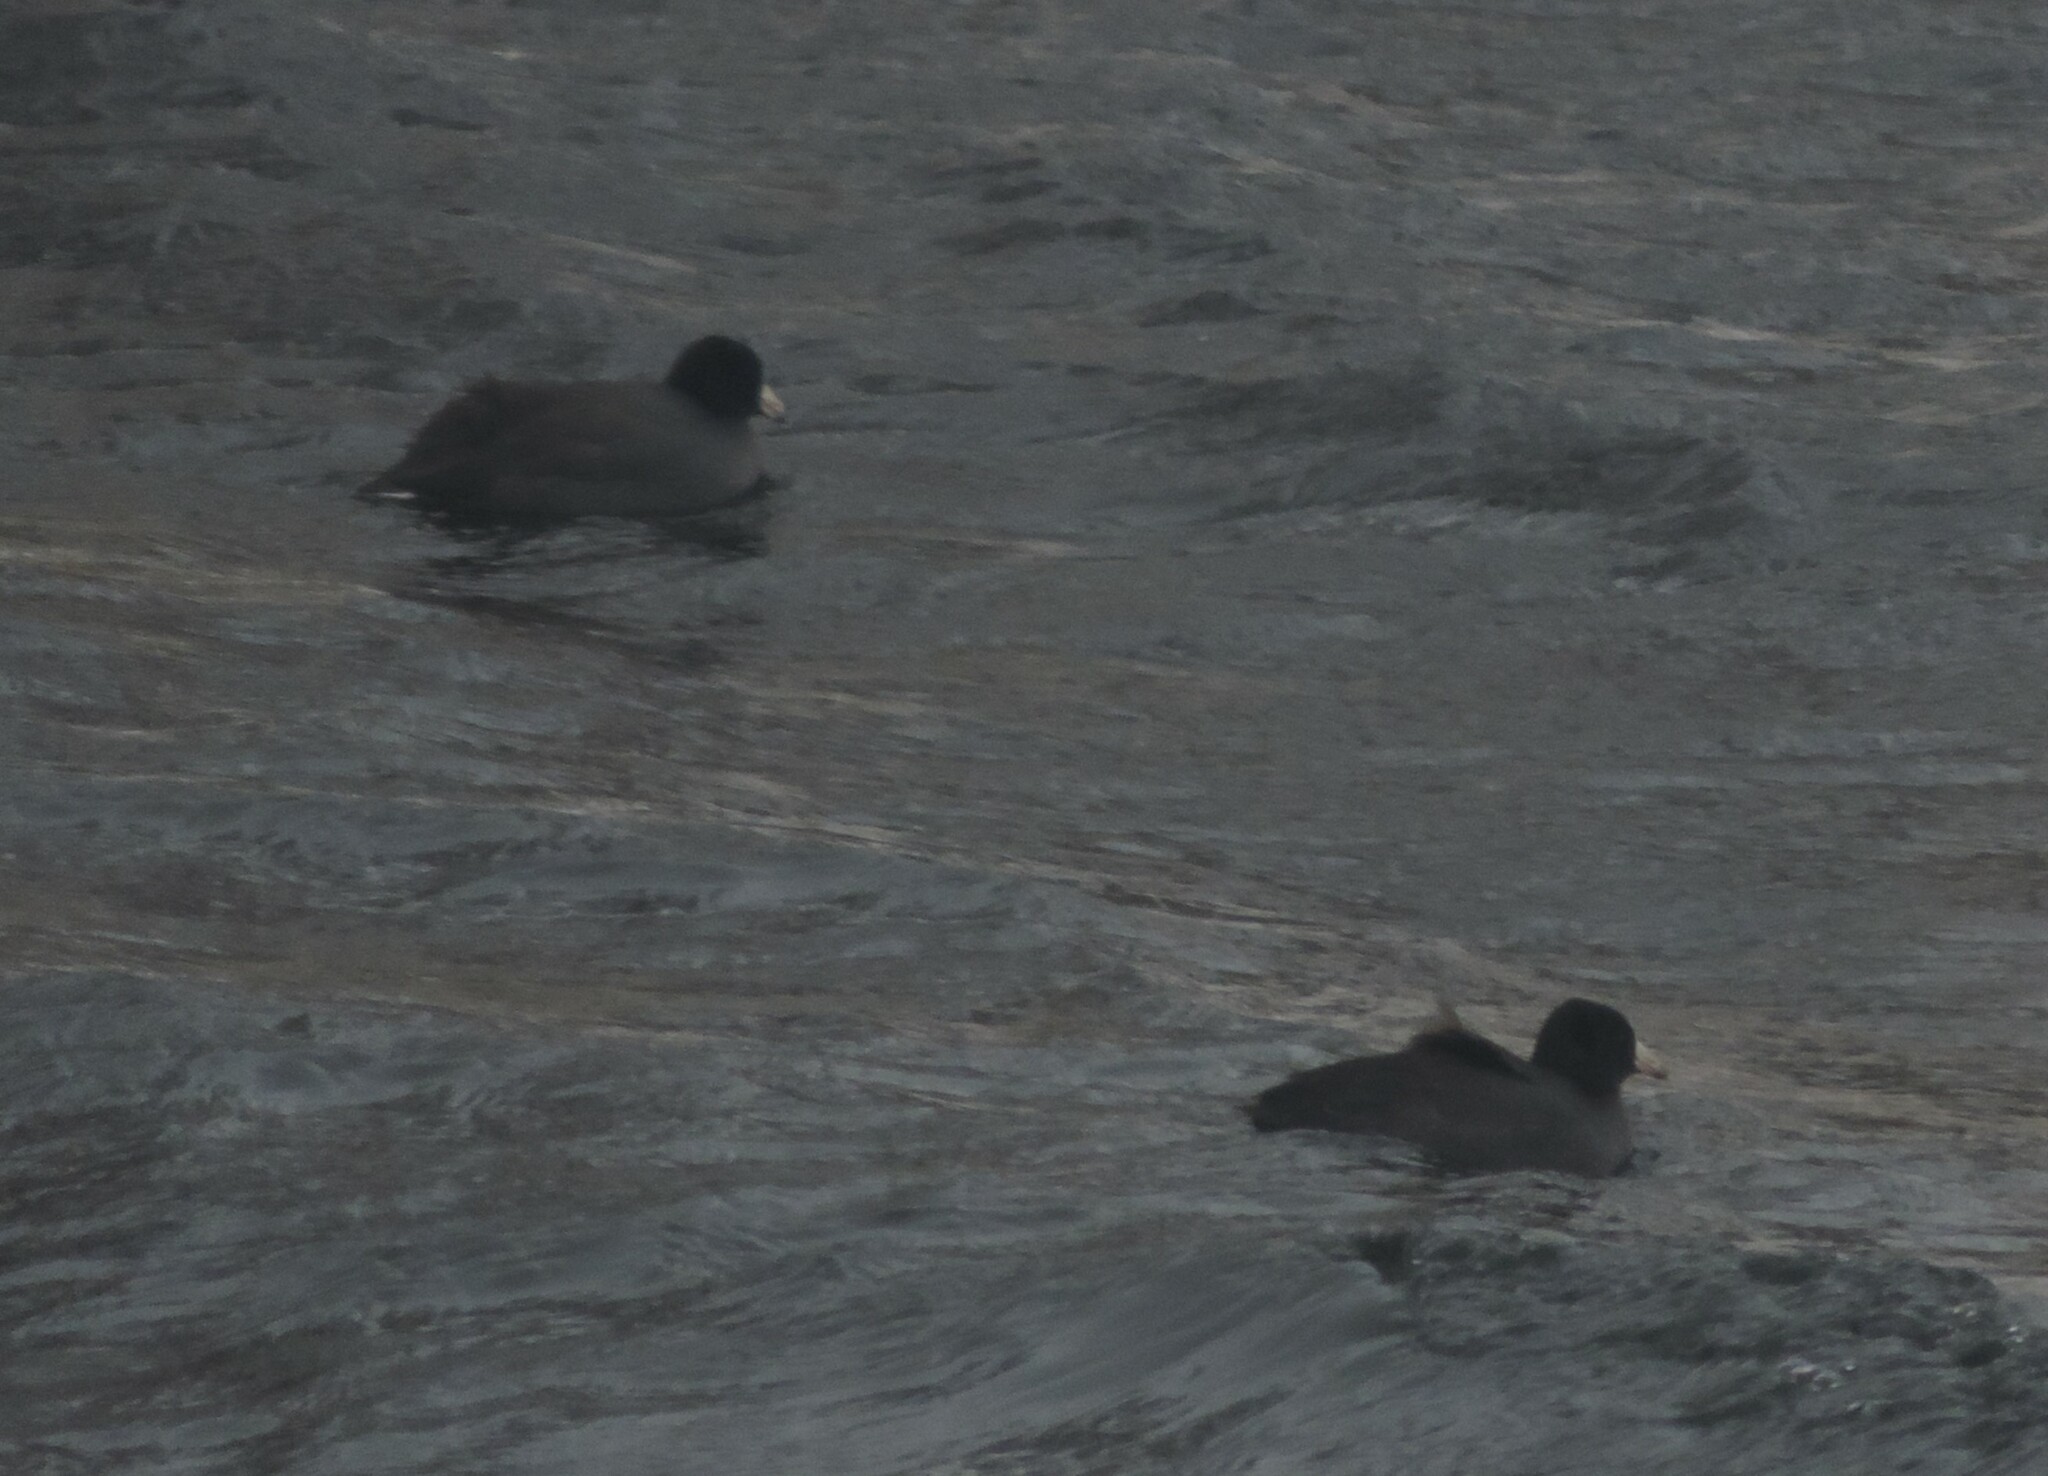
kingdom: Animalia
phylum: Chordata
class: Aves
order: Gruiformes
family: Rallidae
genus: Fulica
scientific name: Fulica americana
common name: American coot
